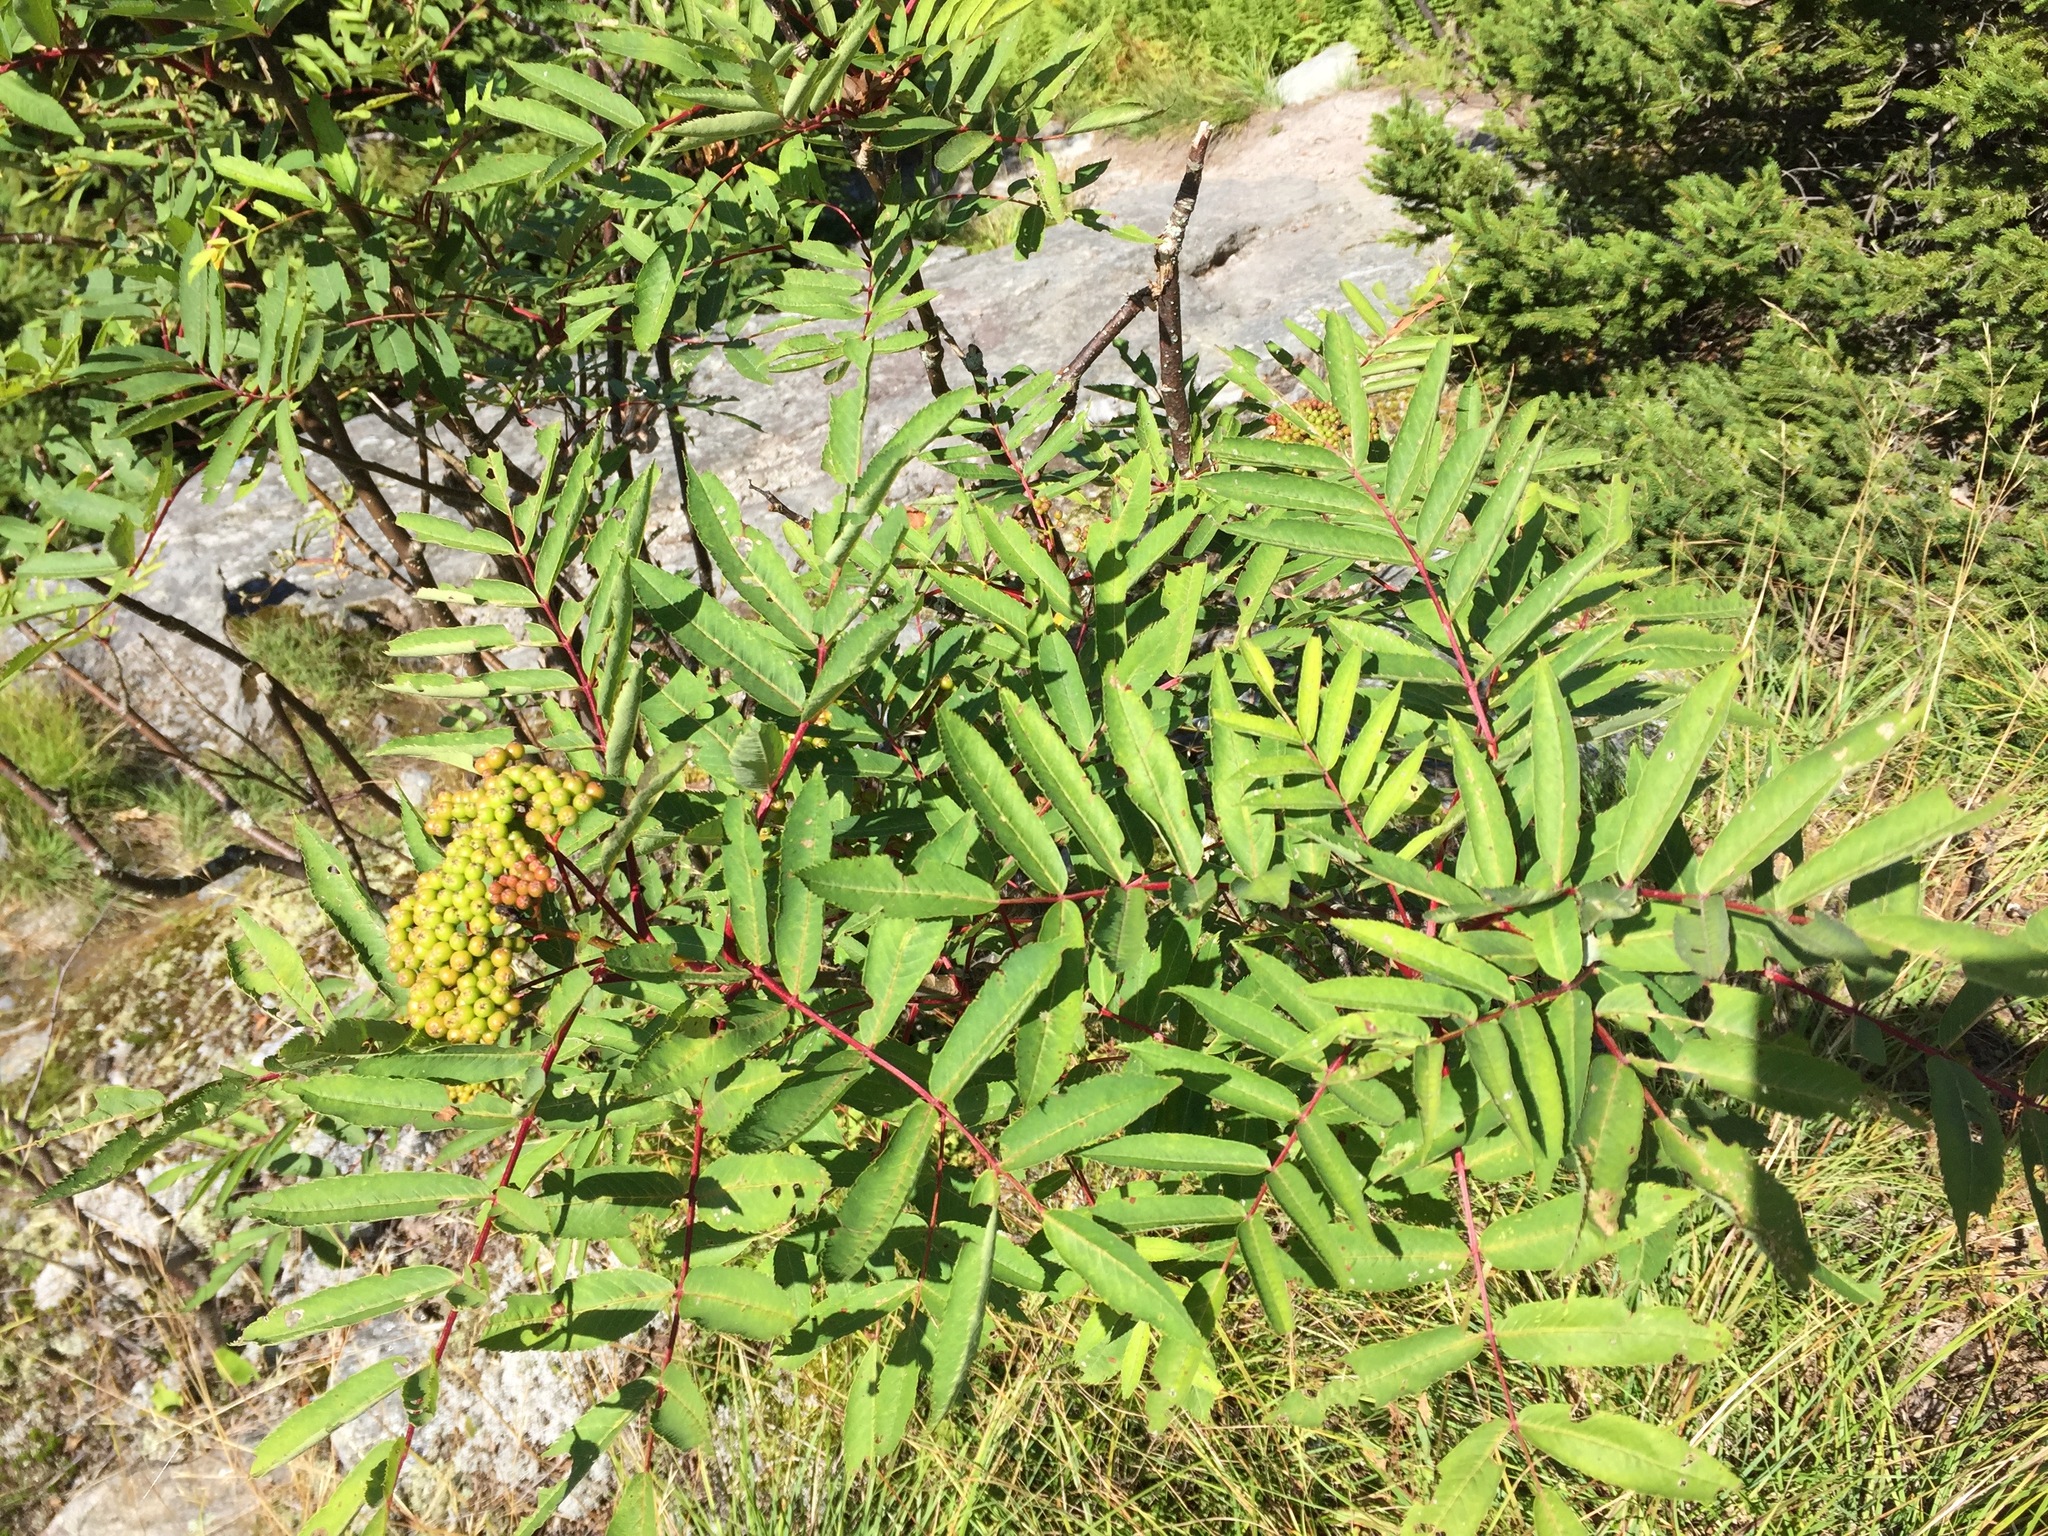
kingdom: Plantae
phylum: Tracheophyta
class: Magnoliopsida
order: Rosales
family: Rosaceae
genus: Sorbus
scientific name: Sorbus americana
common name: American mountain-ash
